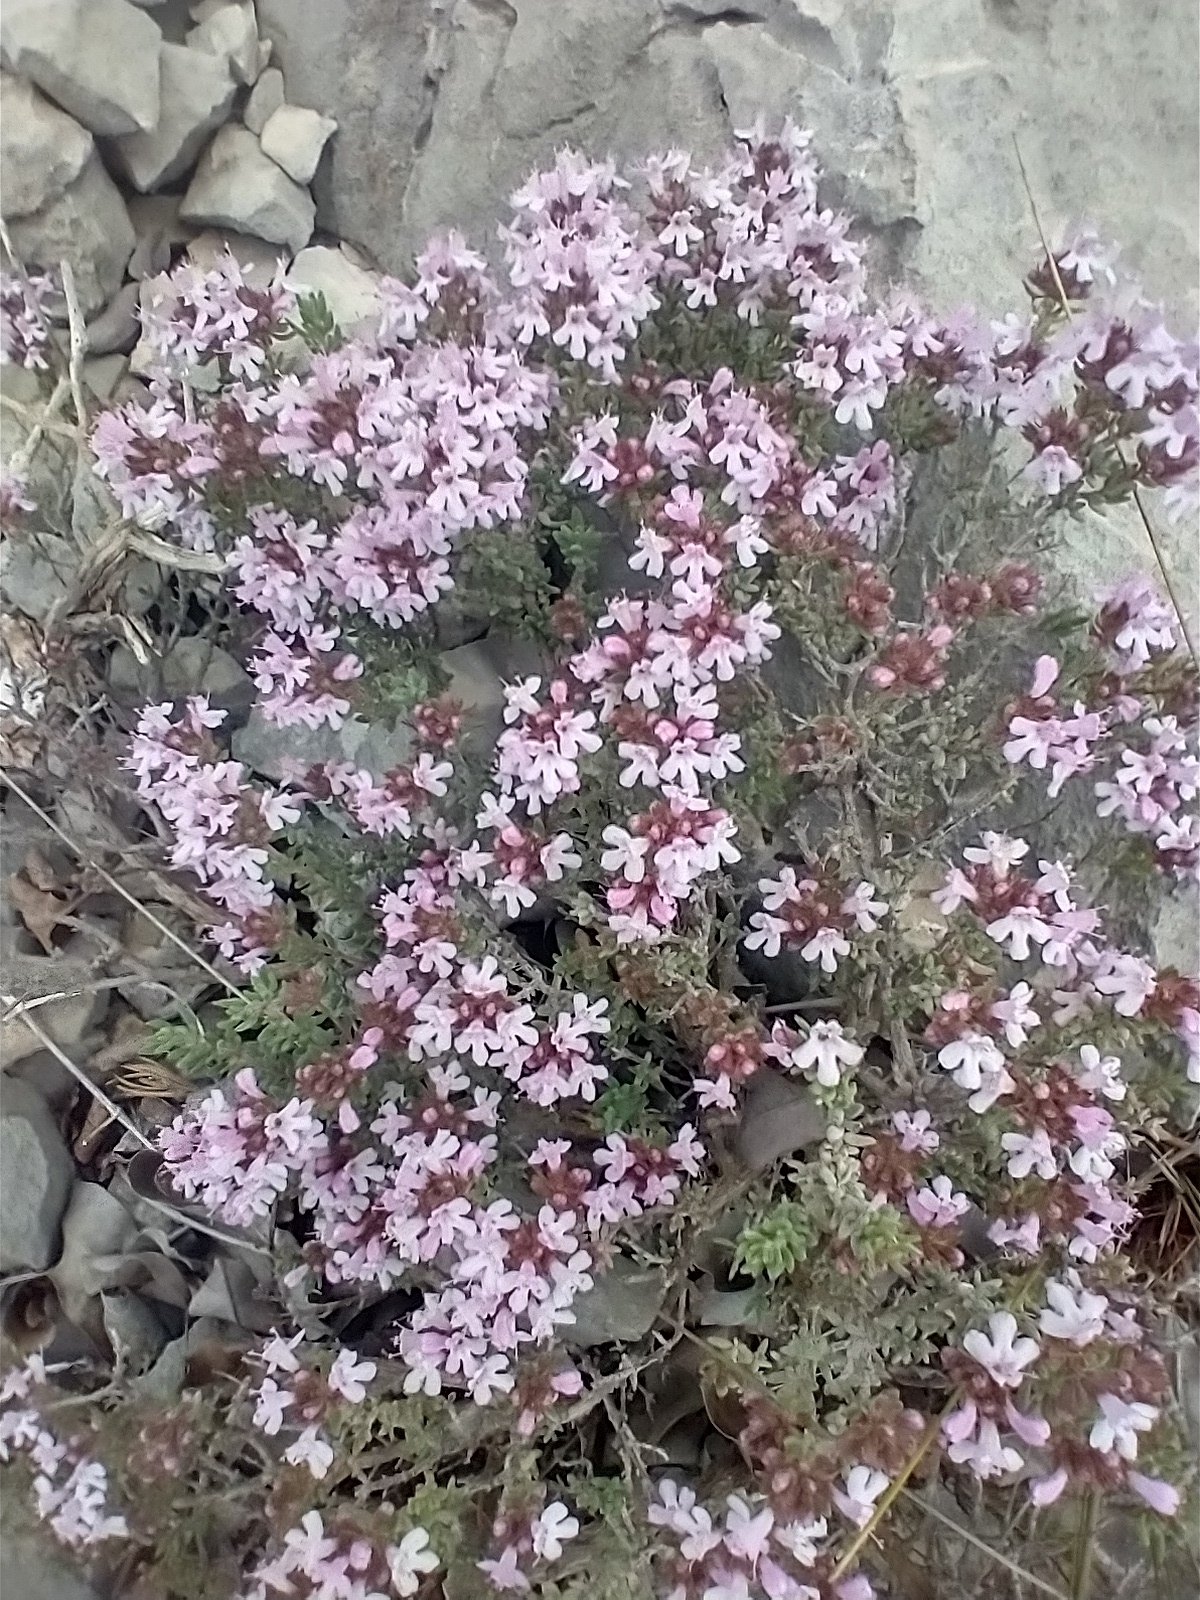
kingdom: Plantae
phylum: Tracheophyta
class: Magnoliopsida
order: Lamiales
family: Lamiaceae
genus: Thymus
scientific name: Thymus vulgaris
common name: Garden thyme
